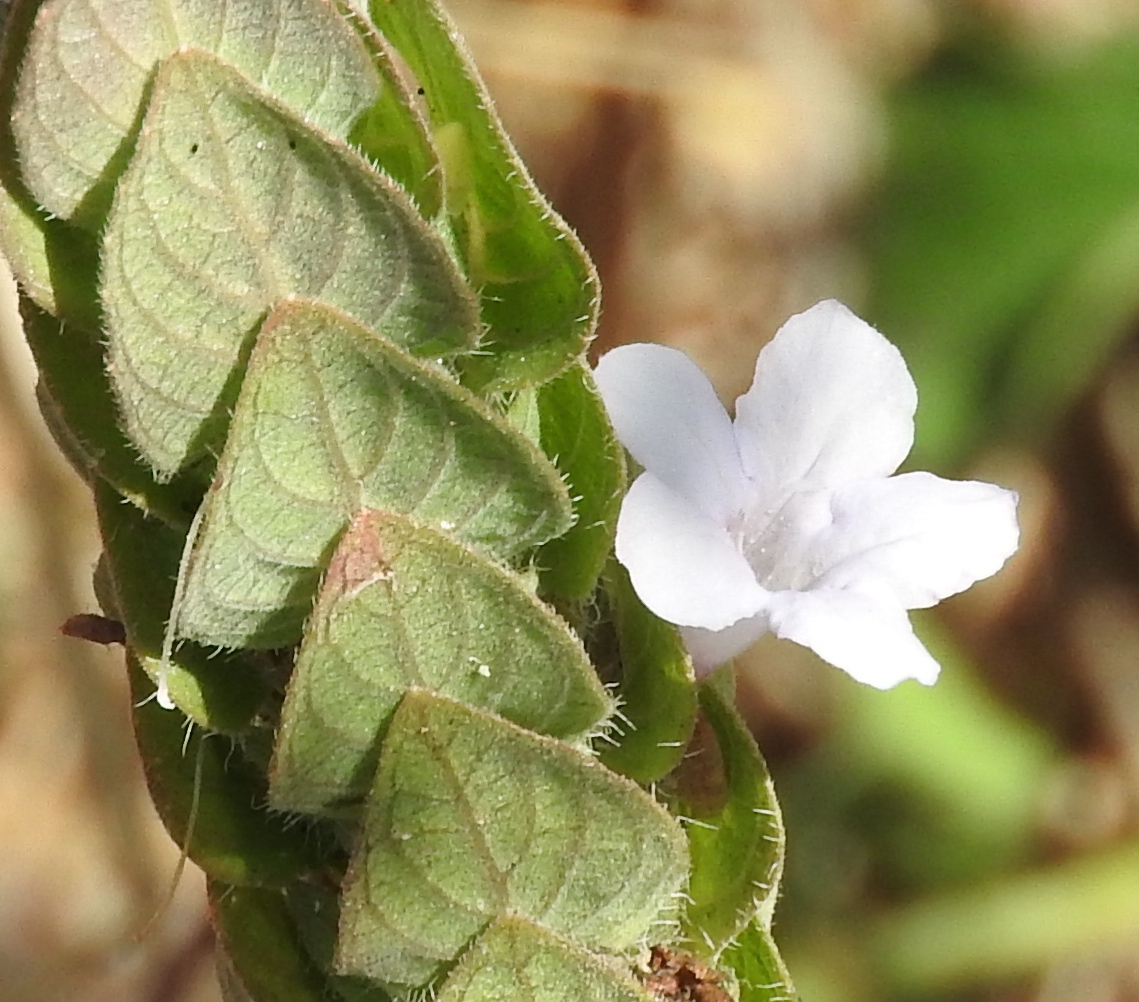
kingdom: Plantae
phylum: Tracheophyta
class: Magnoliopsida
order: Lamiales
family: Acanthaceae
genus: Ruellia
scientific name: Ruellia blechum
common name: Browne's blechum
